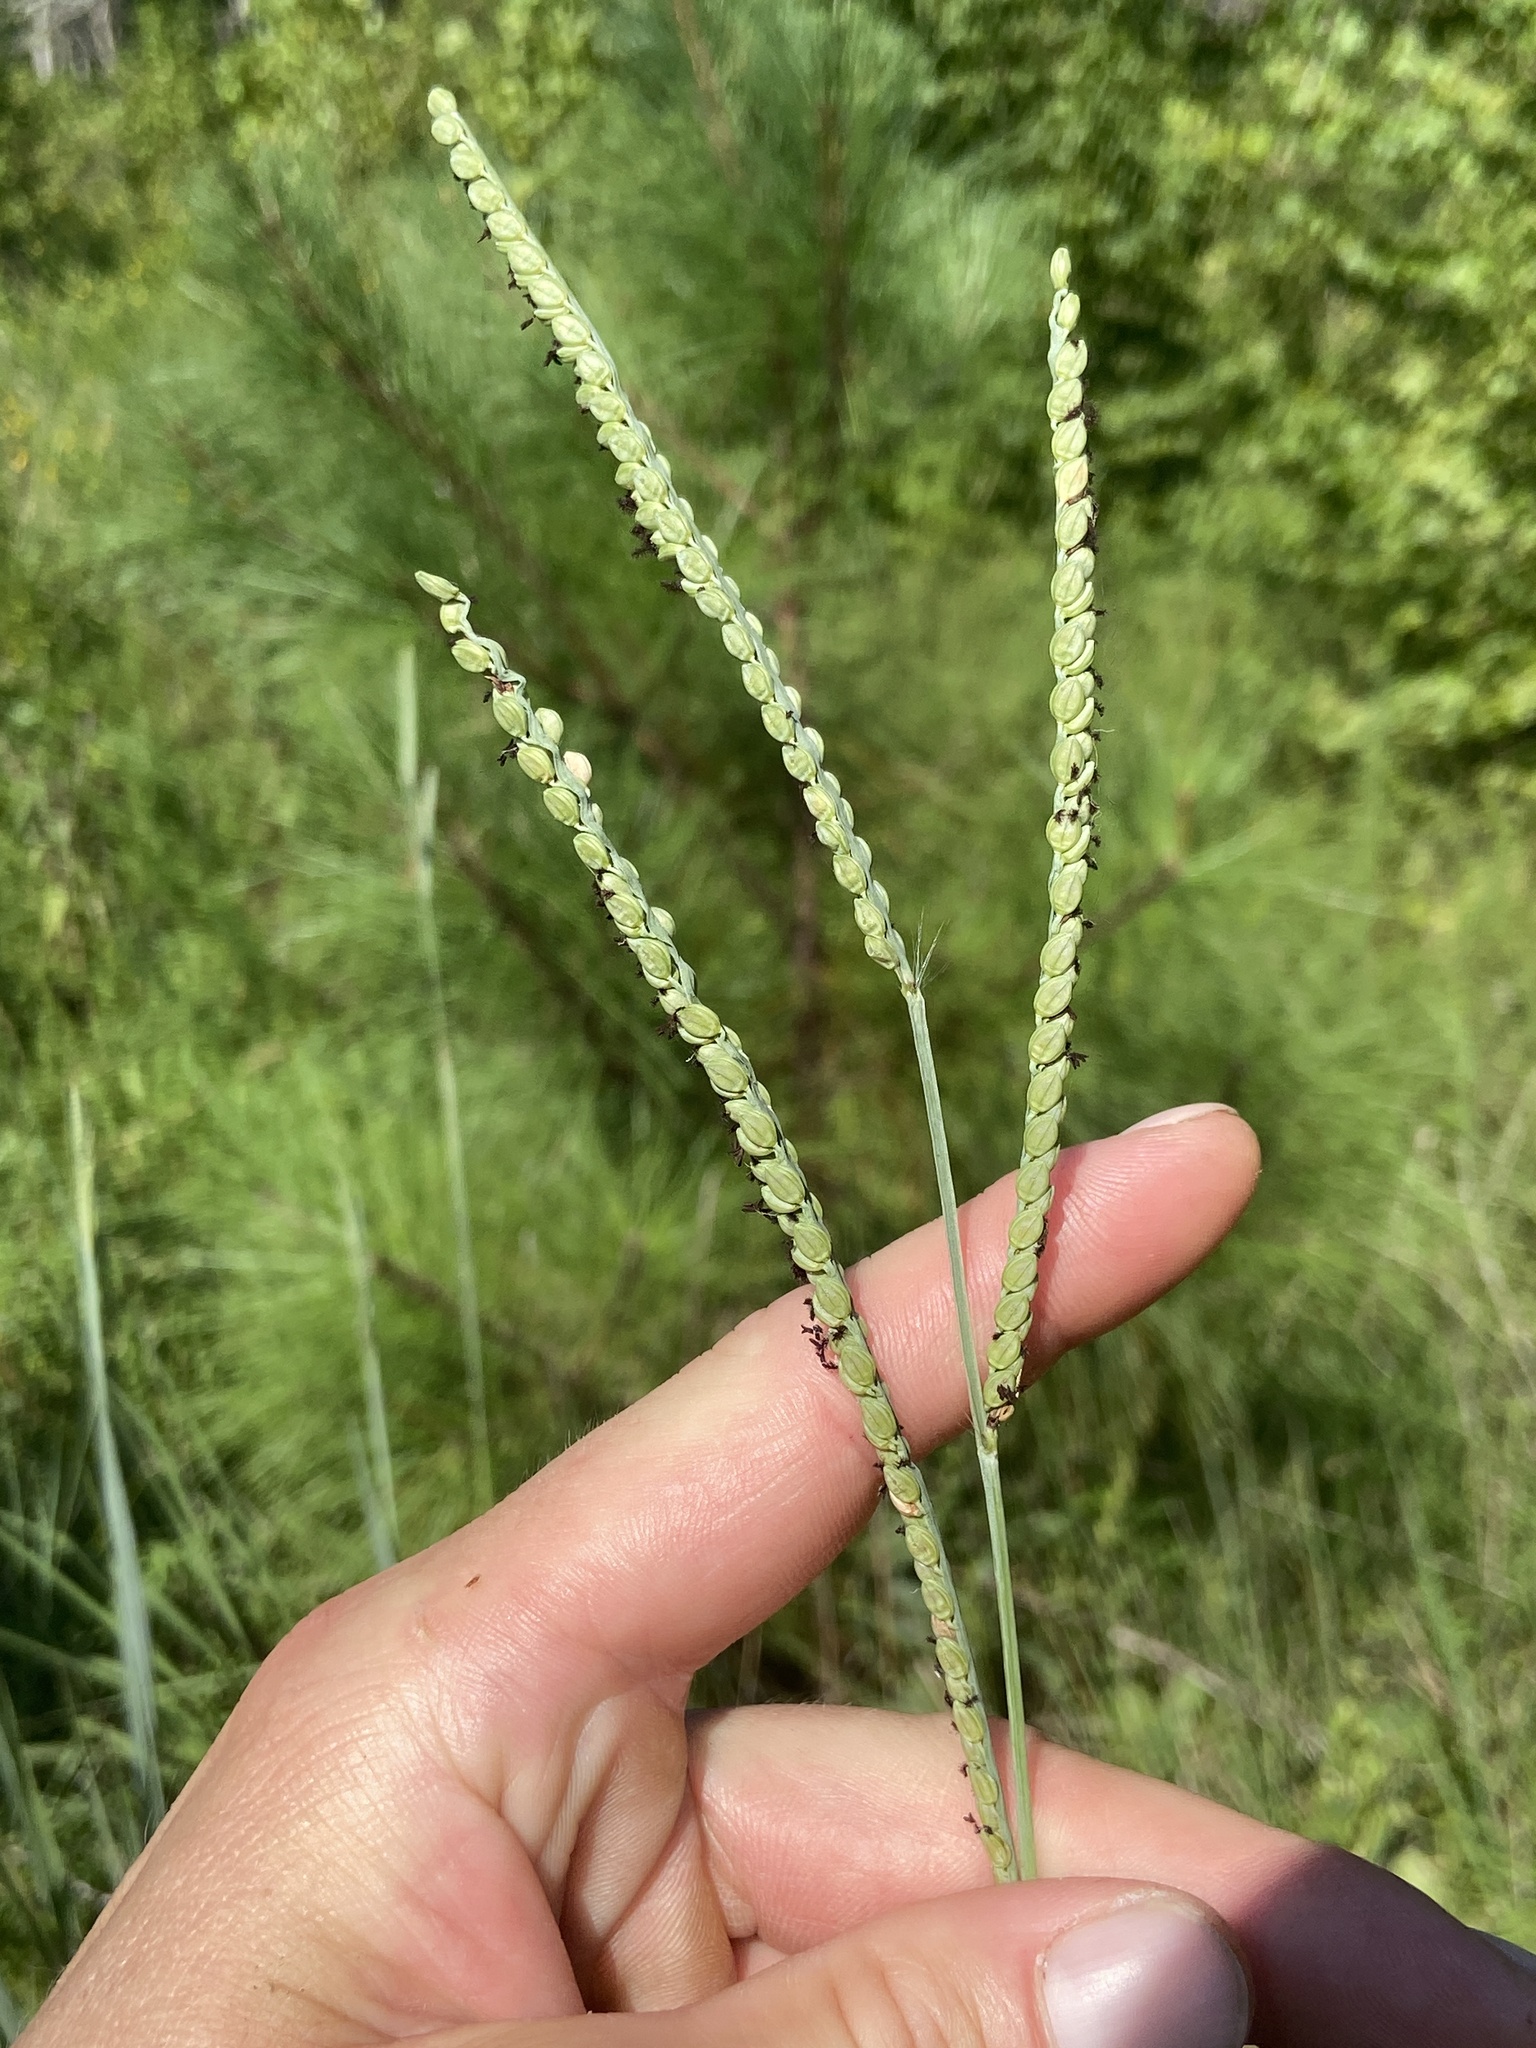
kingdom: Plantae
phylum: Tracheophyta
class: Liliopsida
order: Poales
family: Poaceae
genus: Paspalum
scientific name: Paspalum floridanum
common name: Florida paspalum
